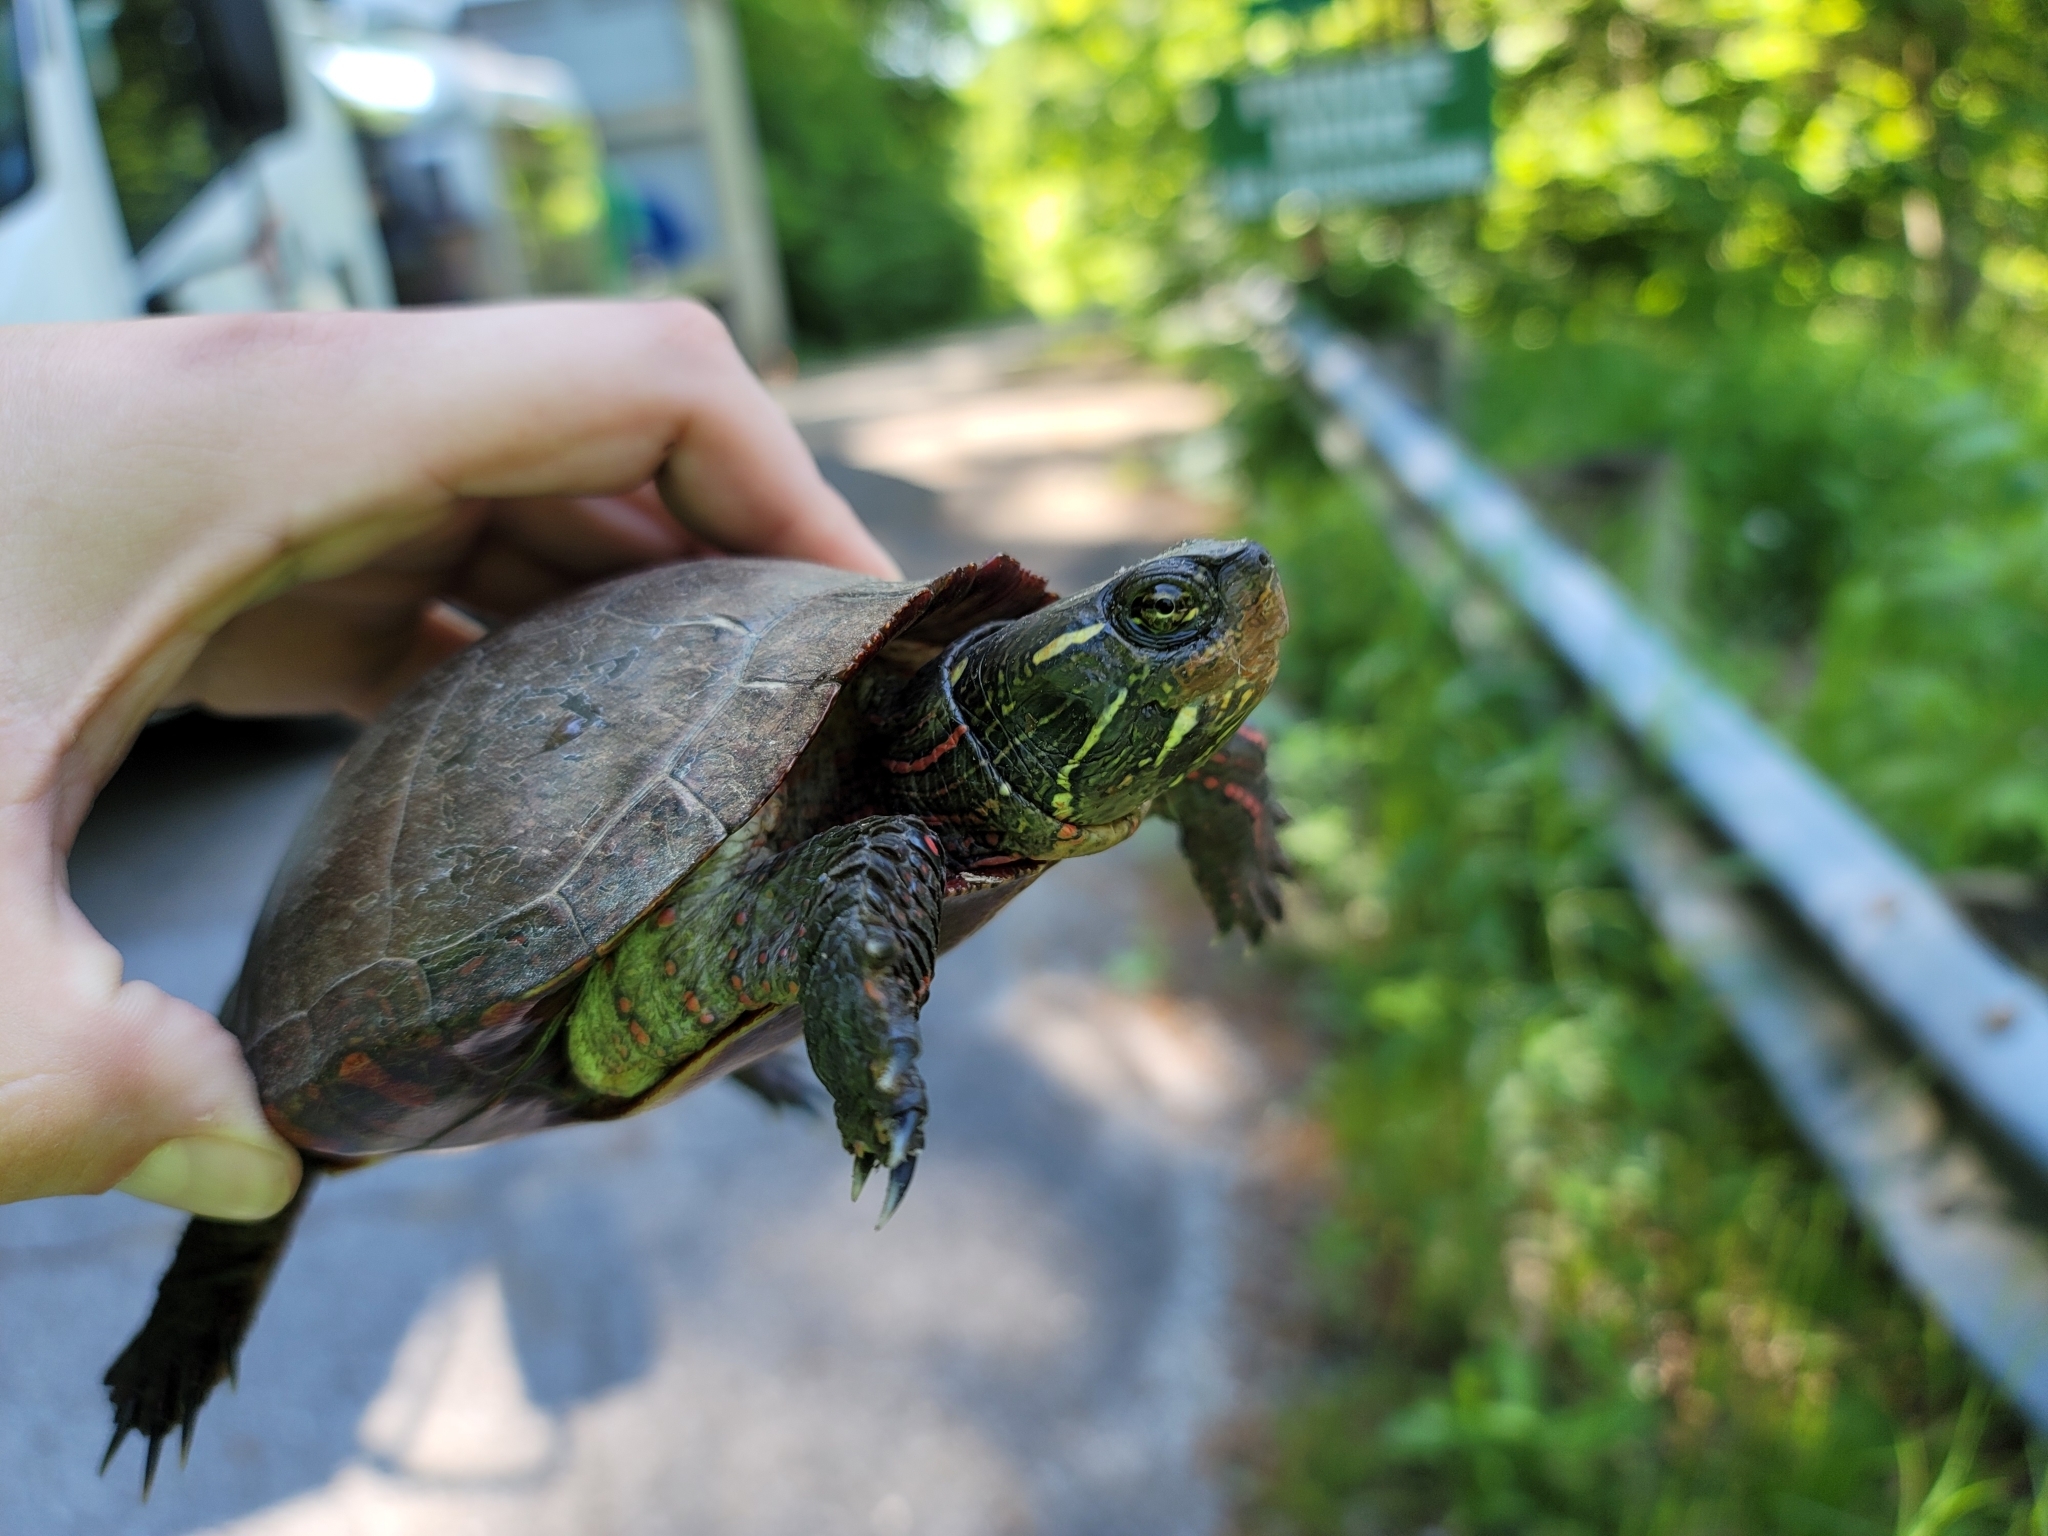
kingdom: Animalia
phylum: Chordata
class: Testudines
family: Emydidae
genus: Chrysemys
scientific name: Chrysemys picta
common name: Painted turtle
